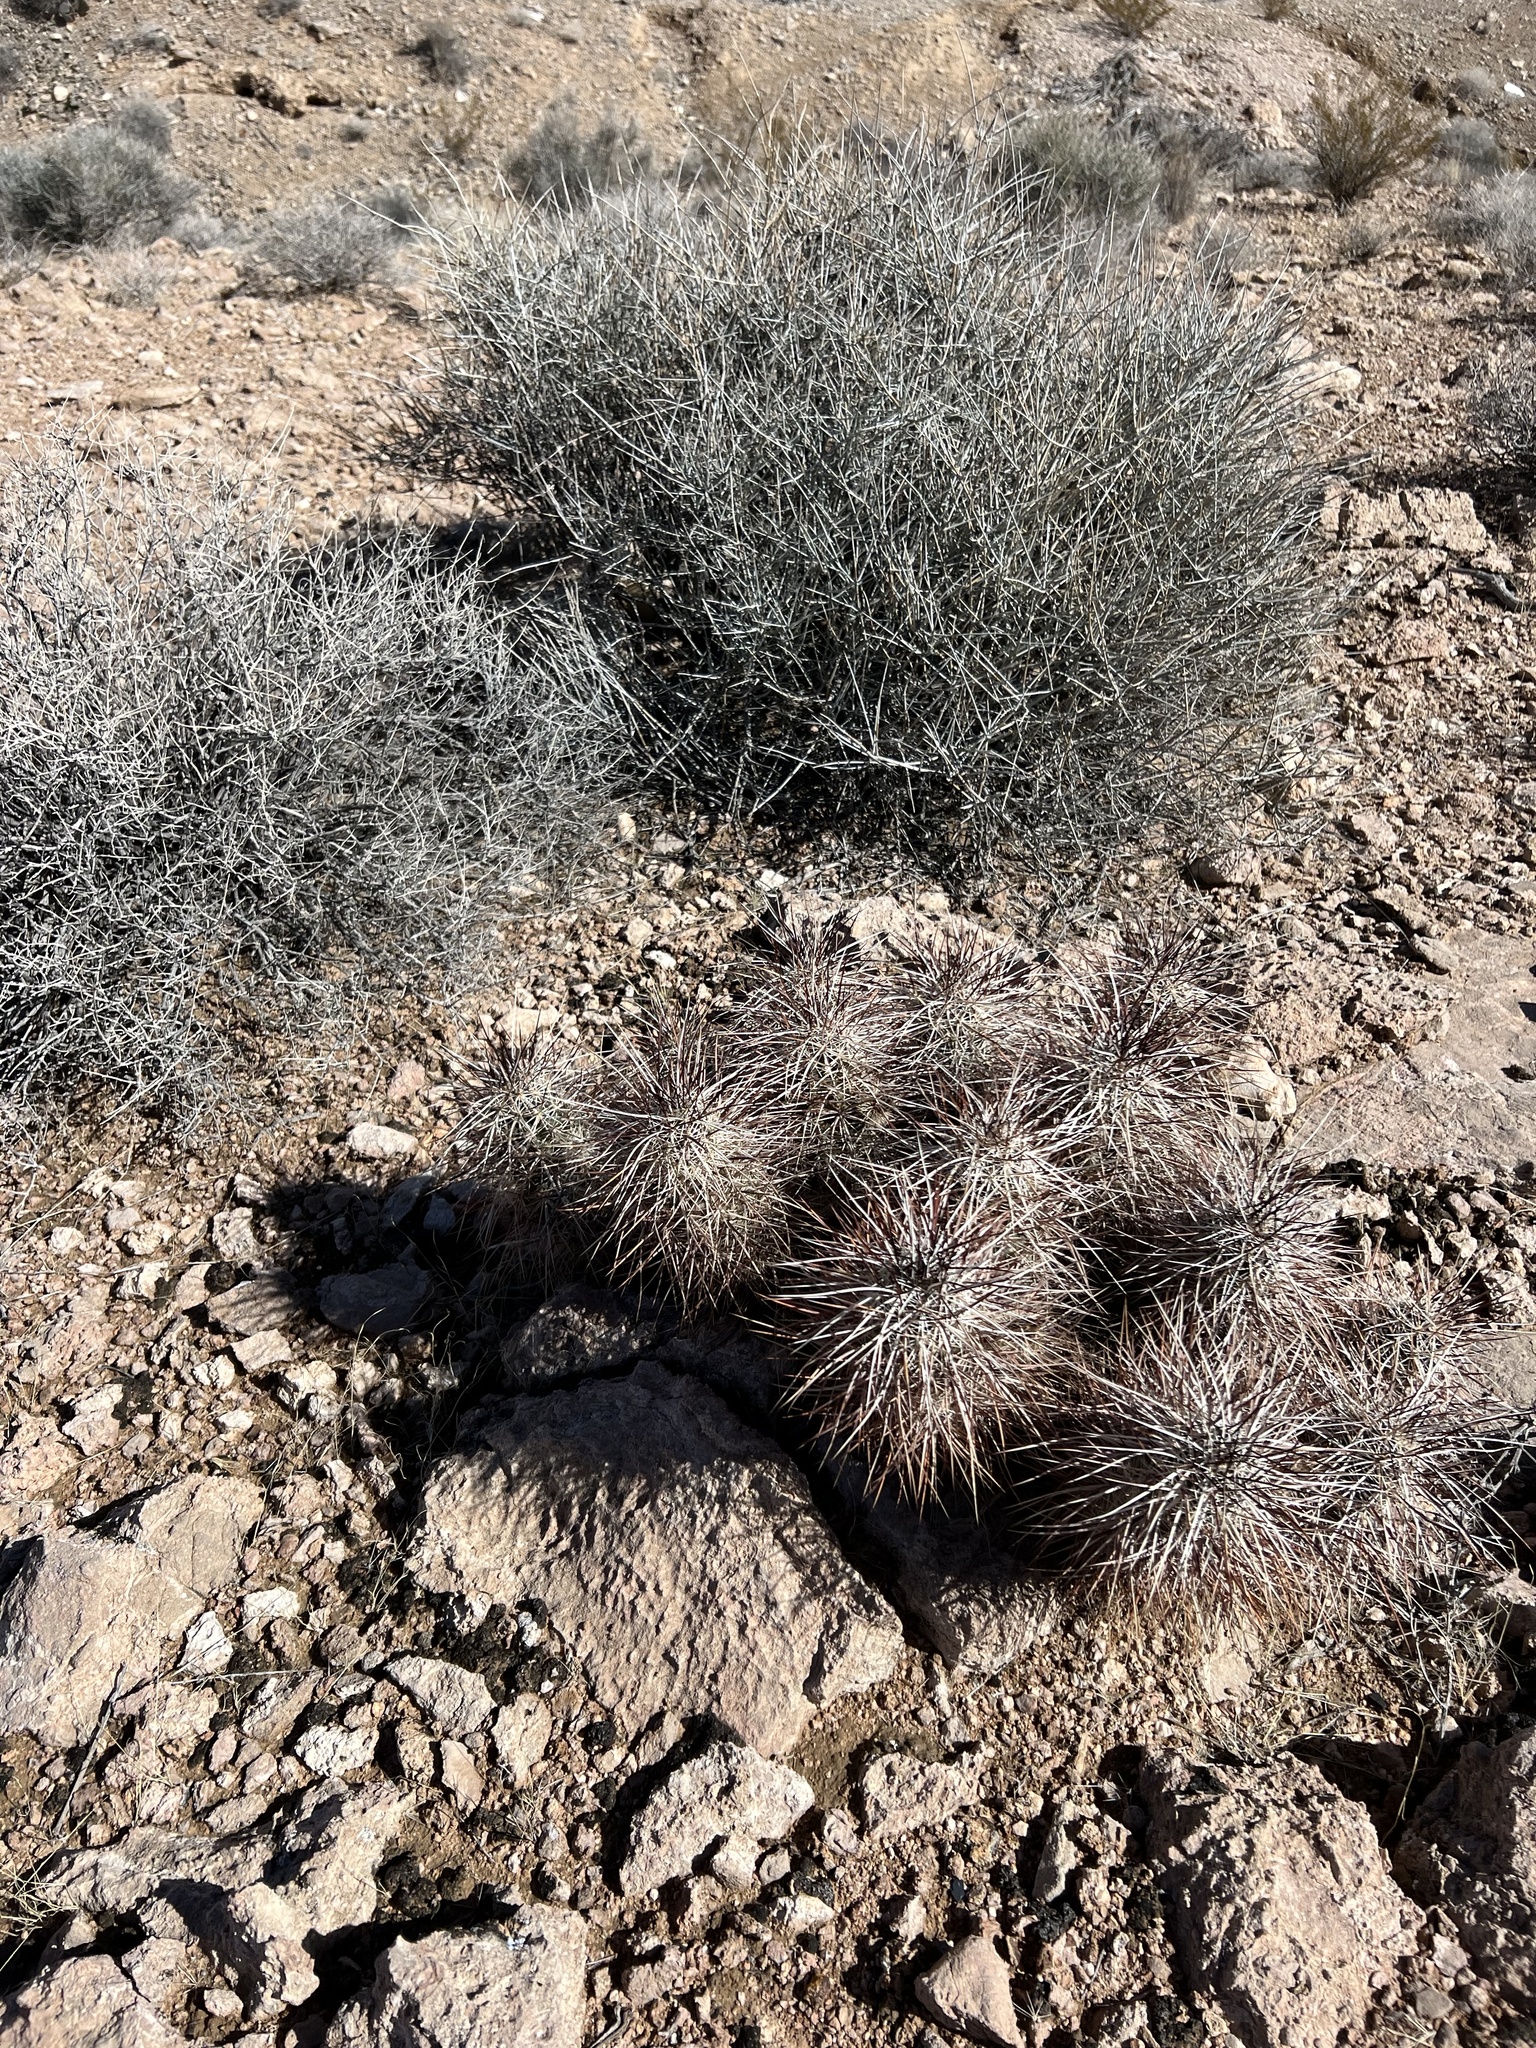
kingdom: Plantae
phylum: Tracheophyta
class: Magnoliopsida
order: Caryophyllales
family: Cactaceae
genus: Echinocereus
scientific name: Echinocereus engelmannii
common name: Engelmann's hedgehog cactus
